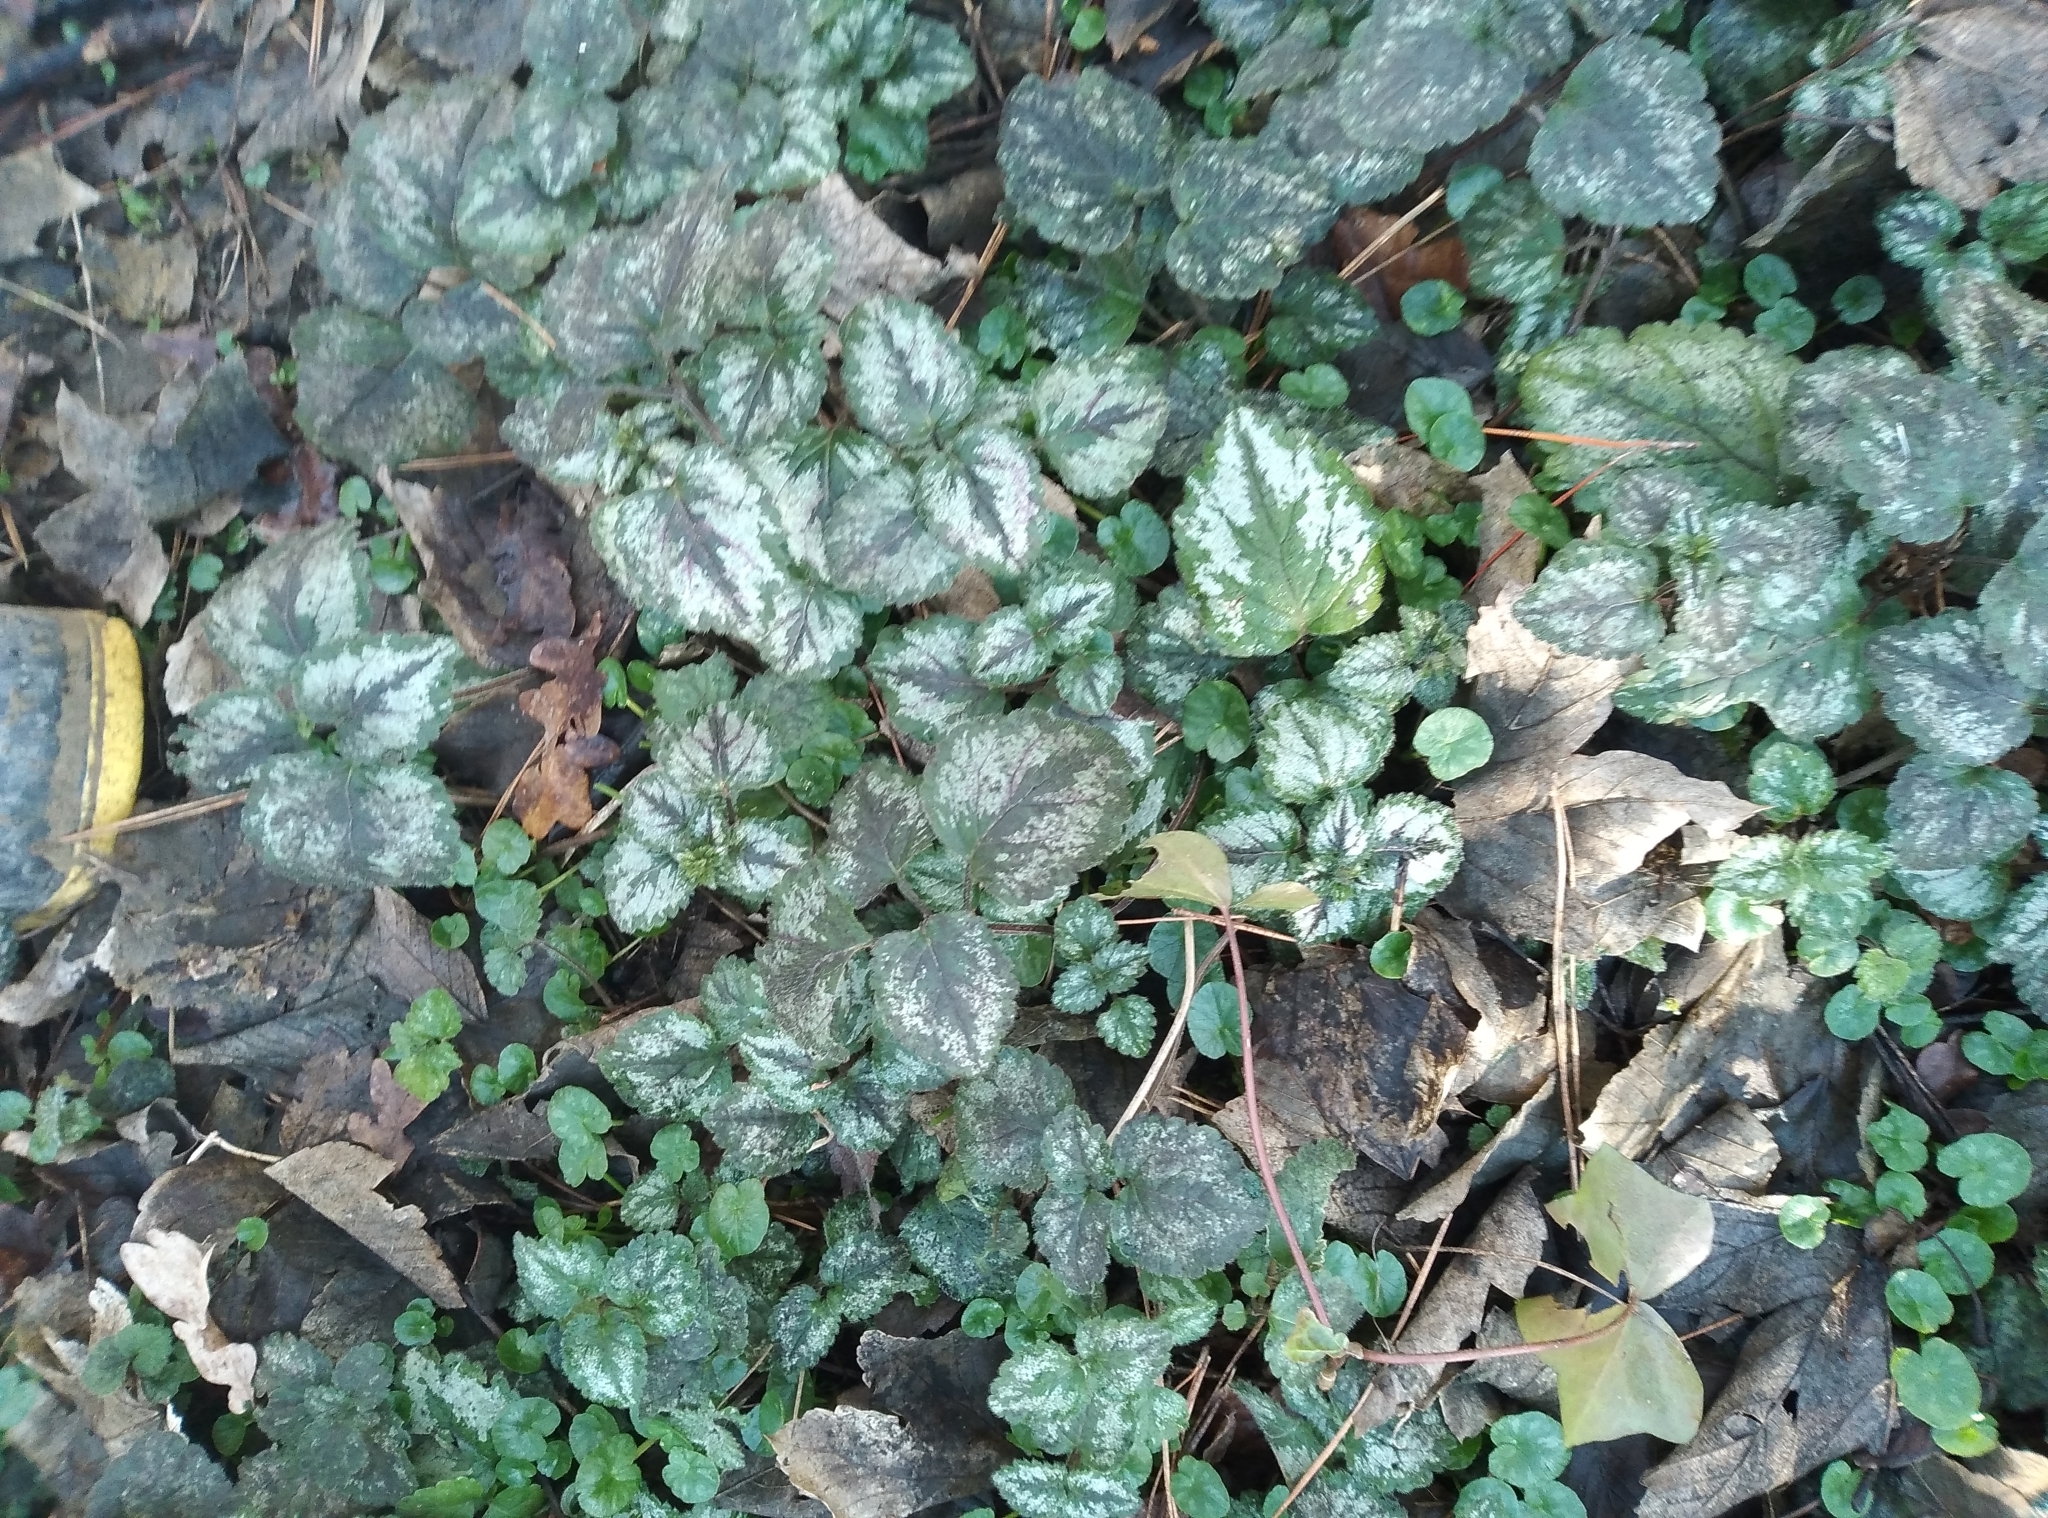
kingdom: Plantae
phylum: Tracheophyta
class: Magnoliopsida
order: Lamiales
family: Lamiaceae
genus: Lamium
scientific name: Lamium galeobdolon
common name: Yellow archangel
